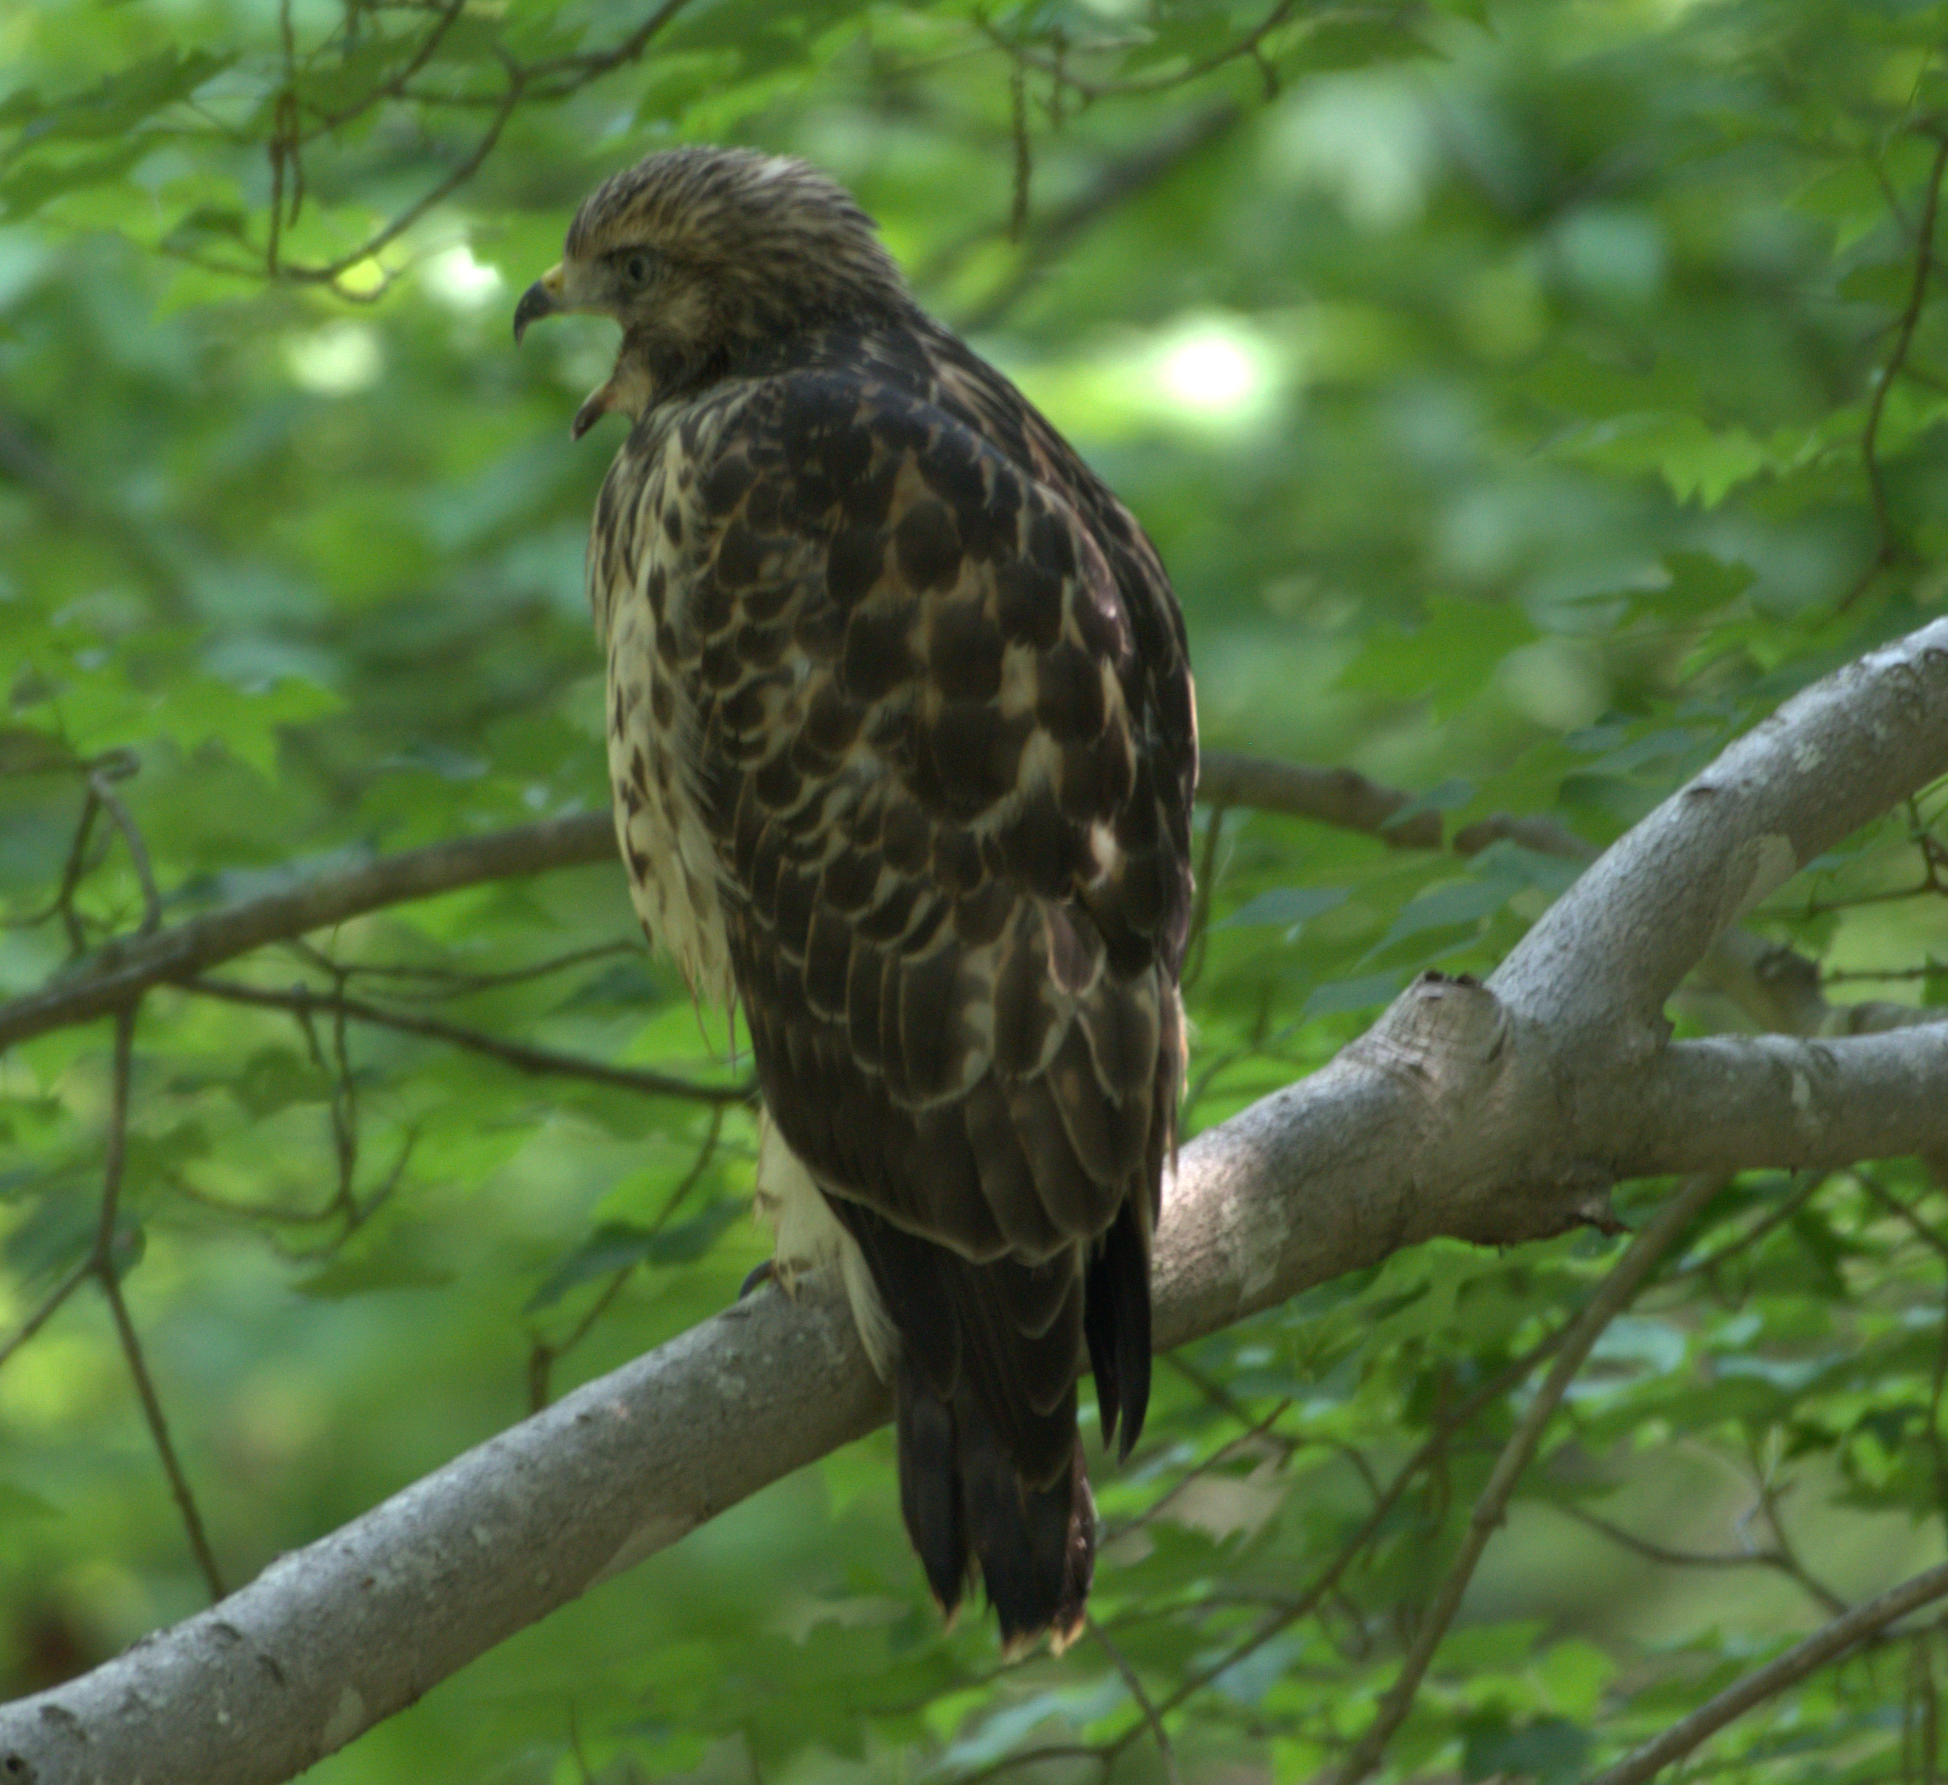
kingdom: Animalia
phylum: Chordata
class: Aves
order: Accipitriformes
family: Accipitridae
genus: Buteo
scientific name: Buteo lineatus
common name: Red-shouldered hawk
